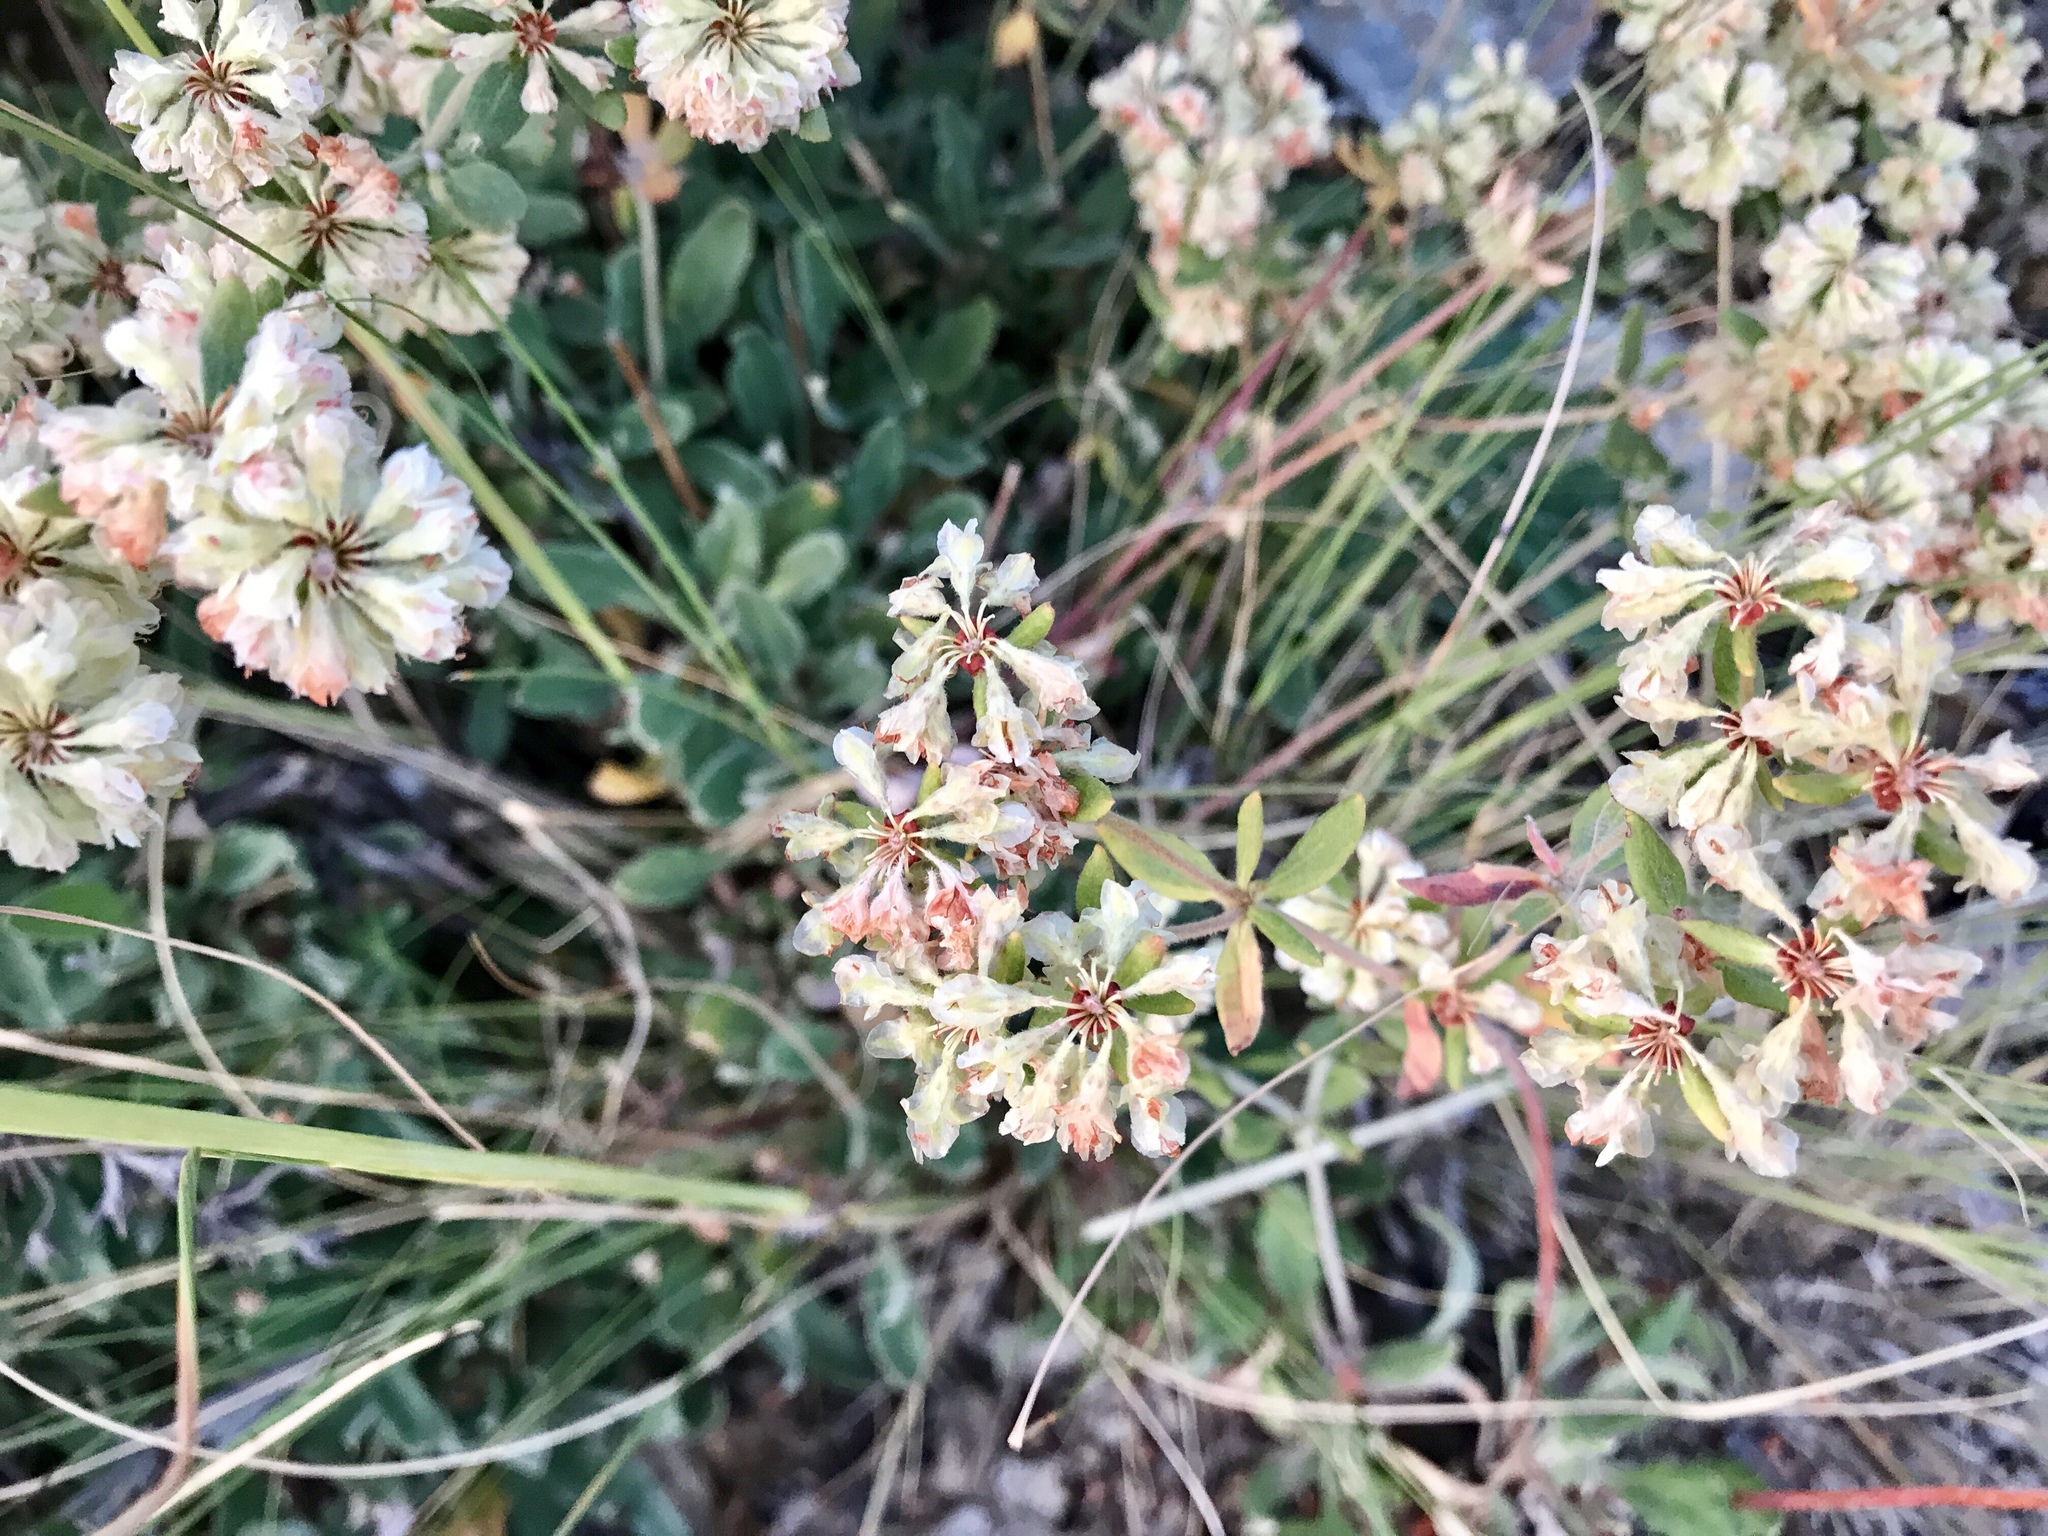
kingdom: Plantae
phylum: Tracheophyta
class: Magnoliopsida
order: Caryophyllales
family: Polygonaceae
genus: Eriogonum
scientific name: Eriogonum jamesii
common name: Antelope-sage
